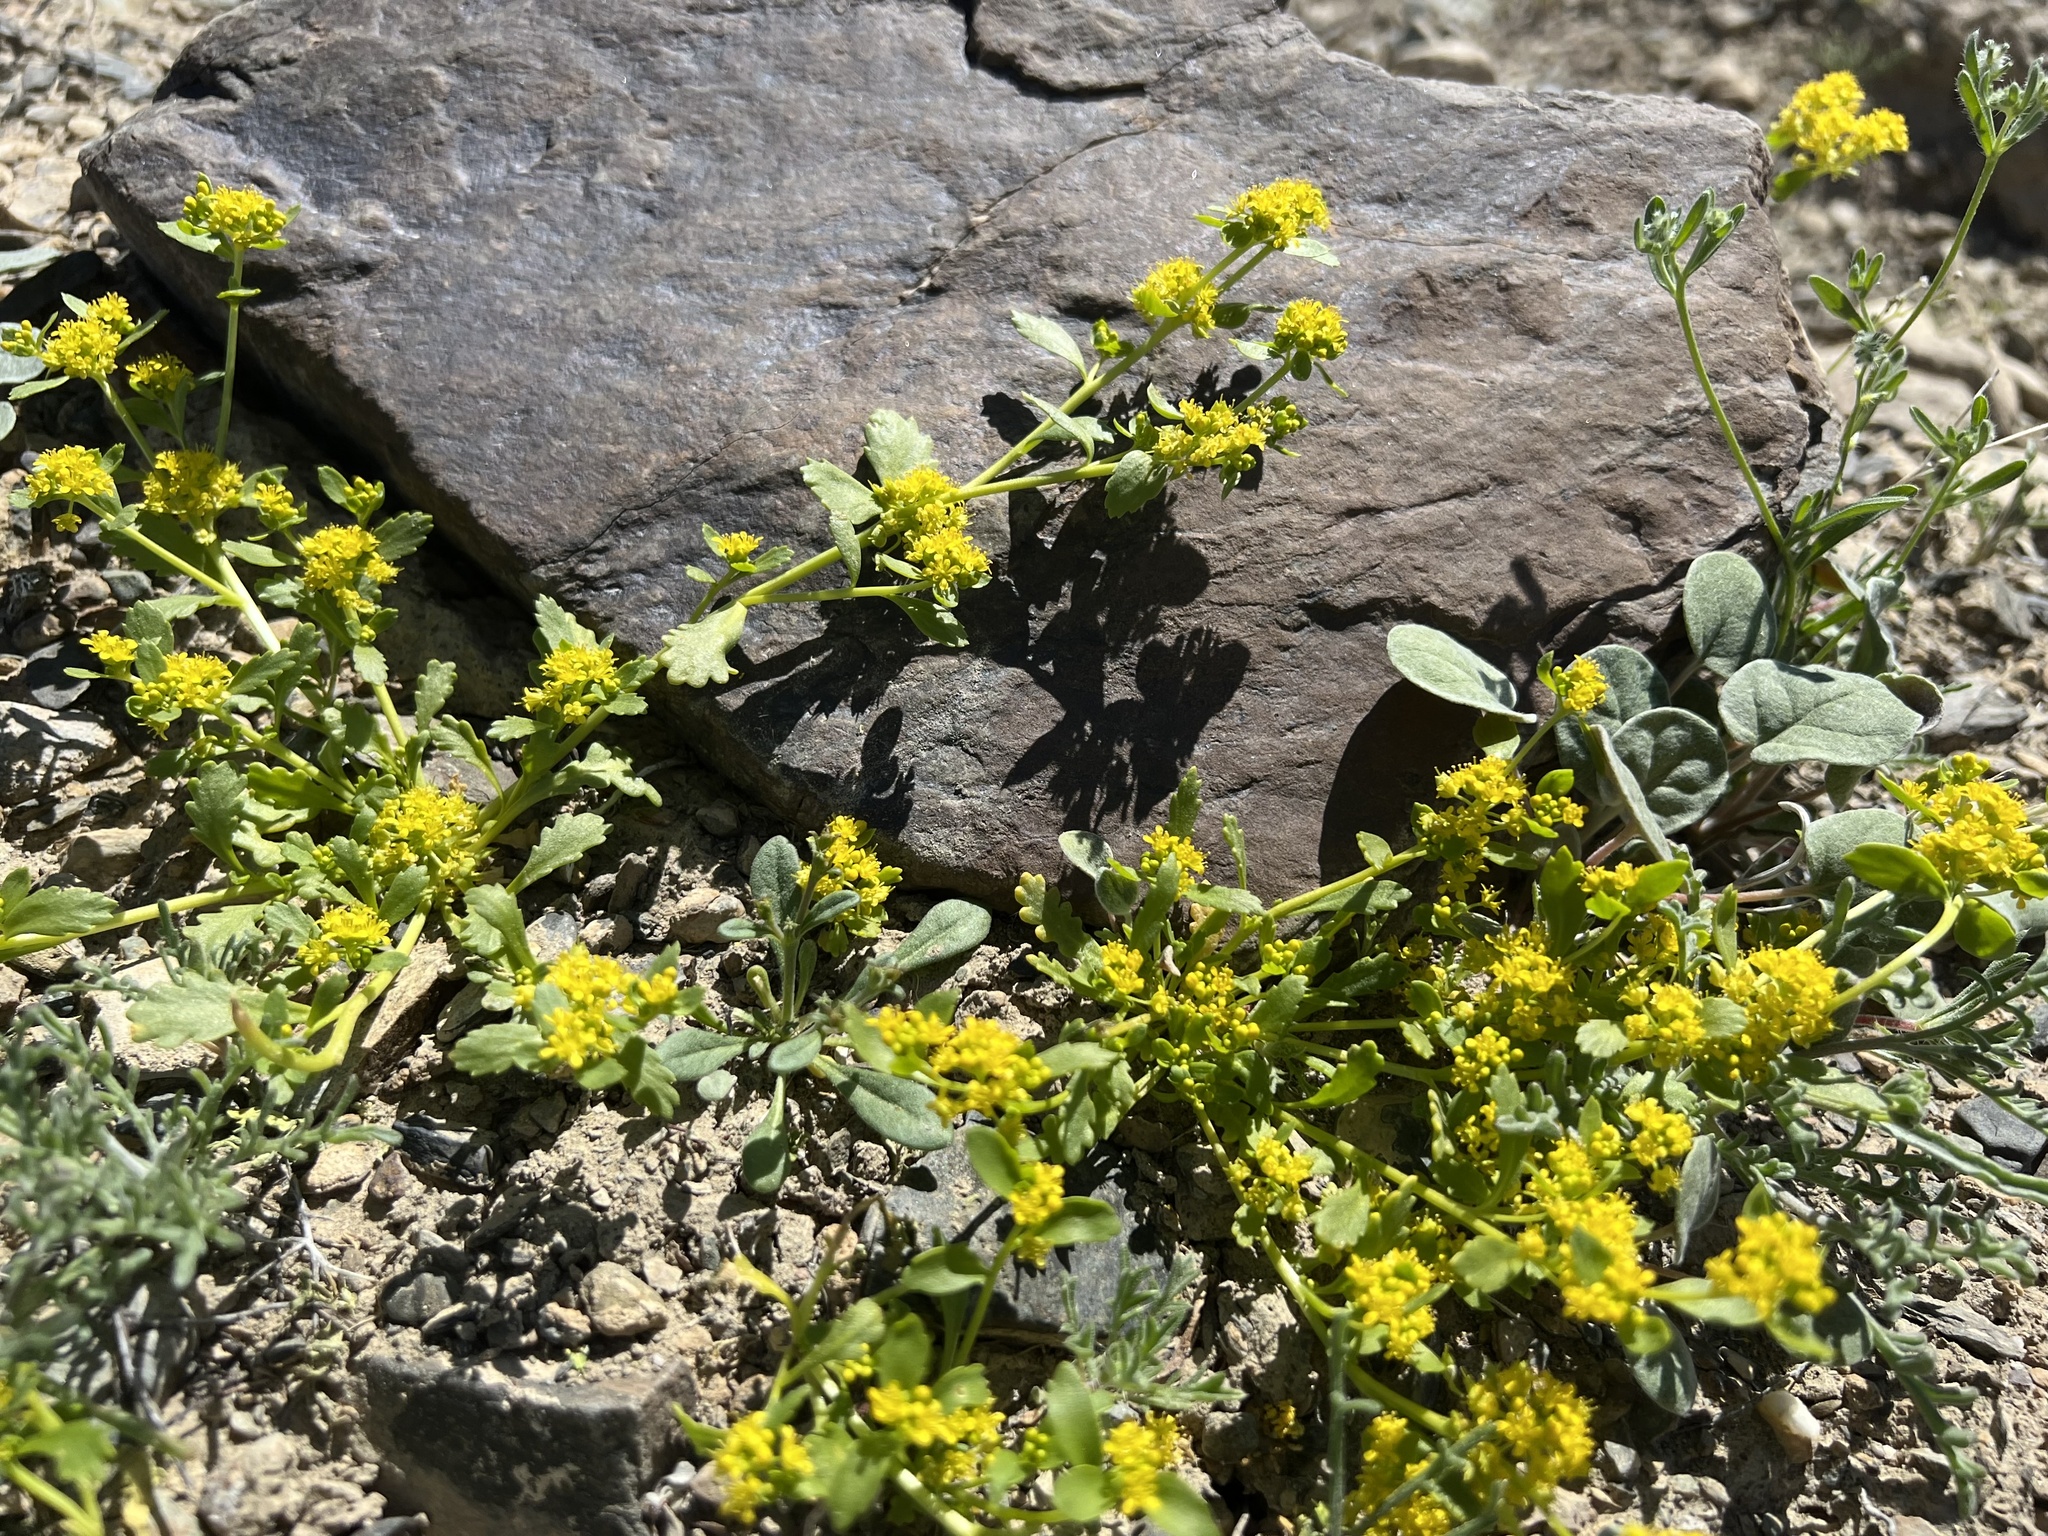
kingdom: Plantae
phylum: Tracheophyta
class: Magnoliopsida
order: Brassicales
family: Brassicaceae
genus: Lepidium
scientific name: Lepidium flavum
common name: Yellow pepperwort
